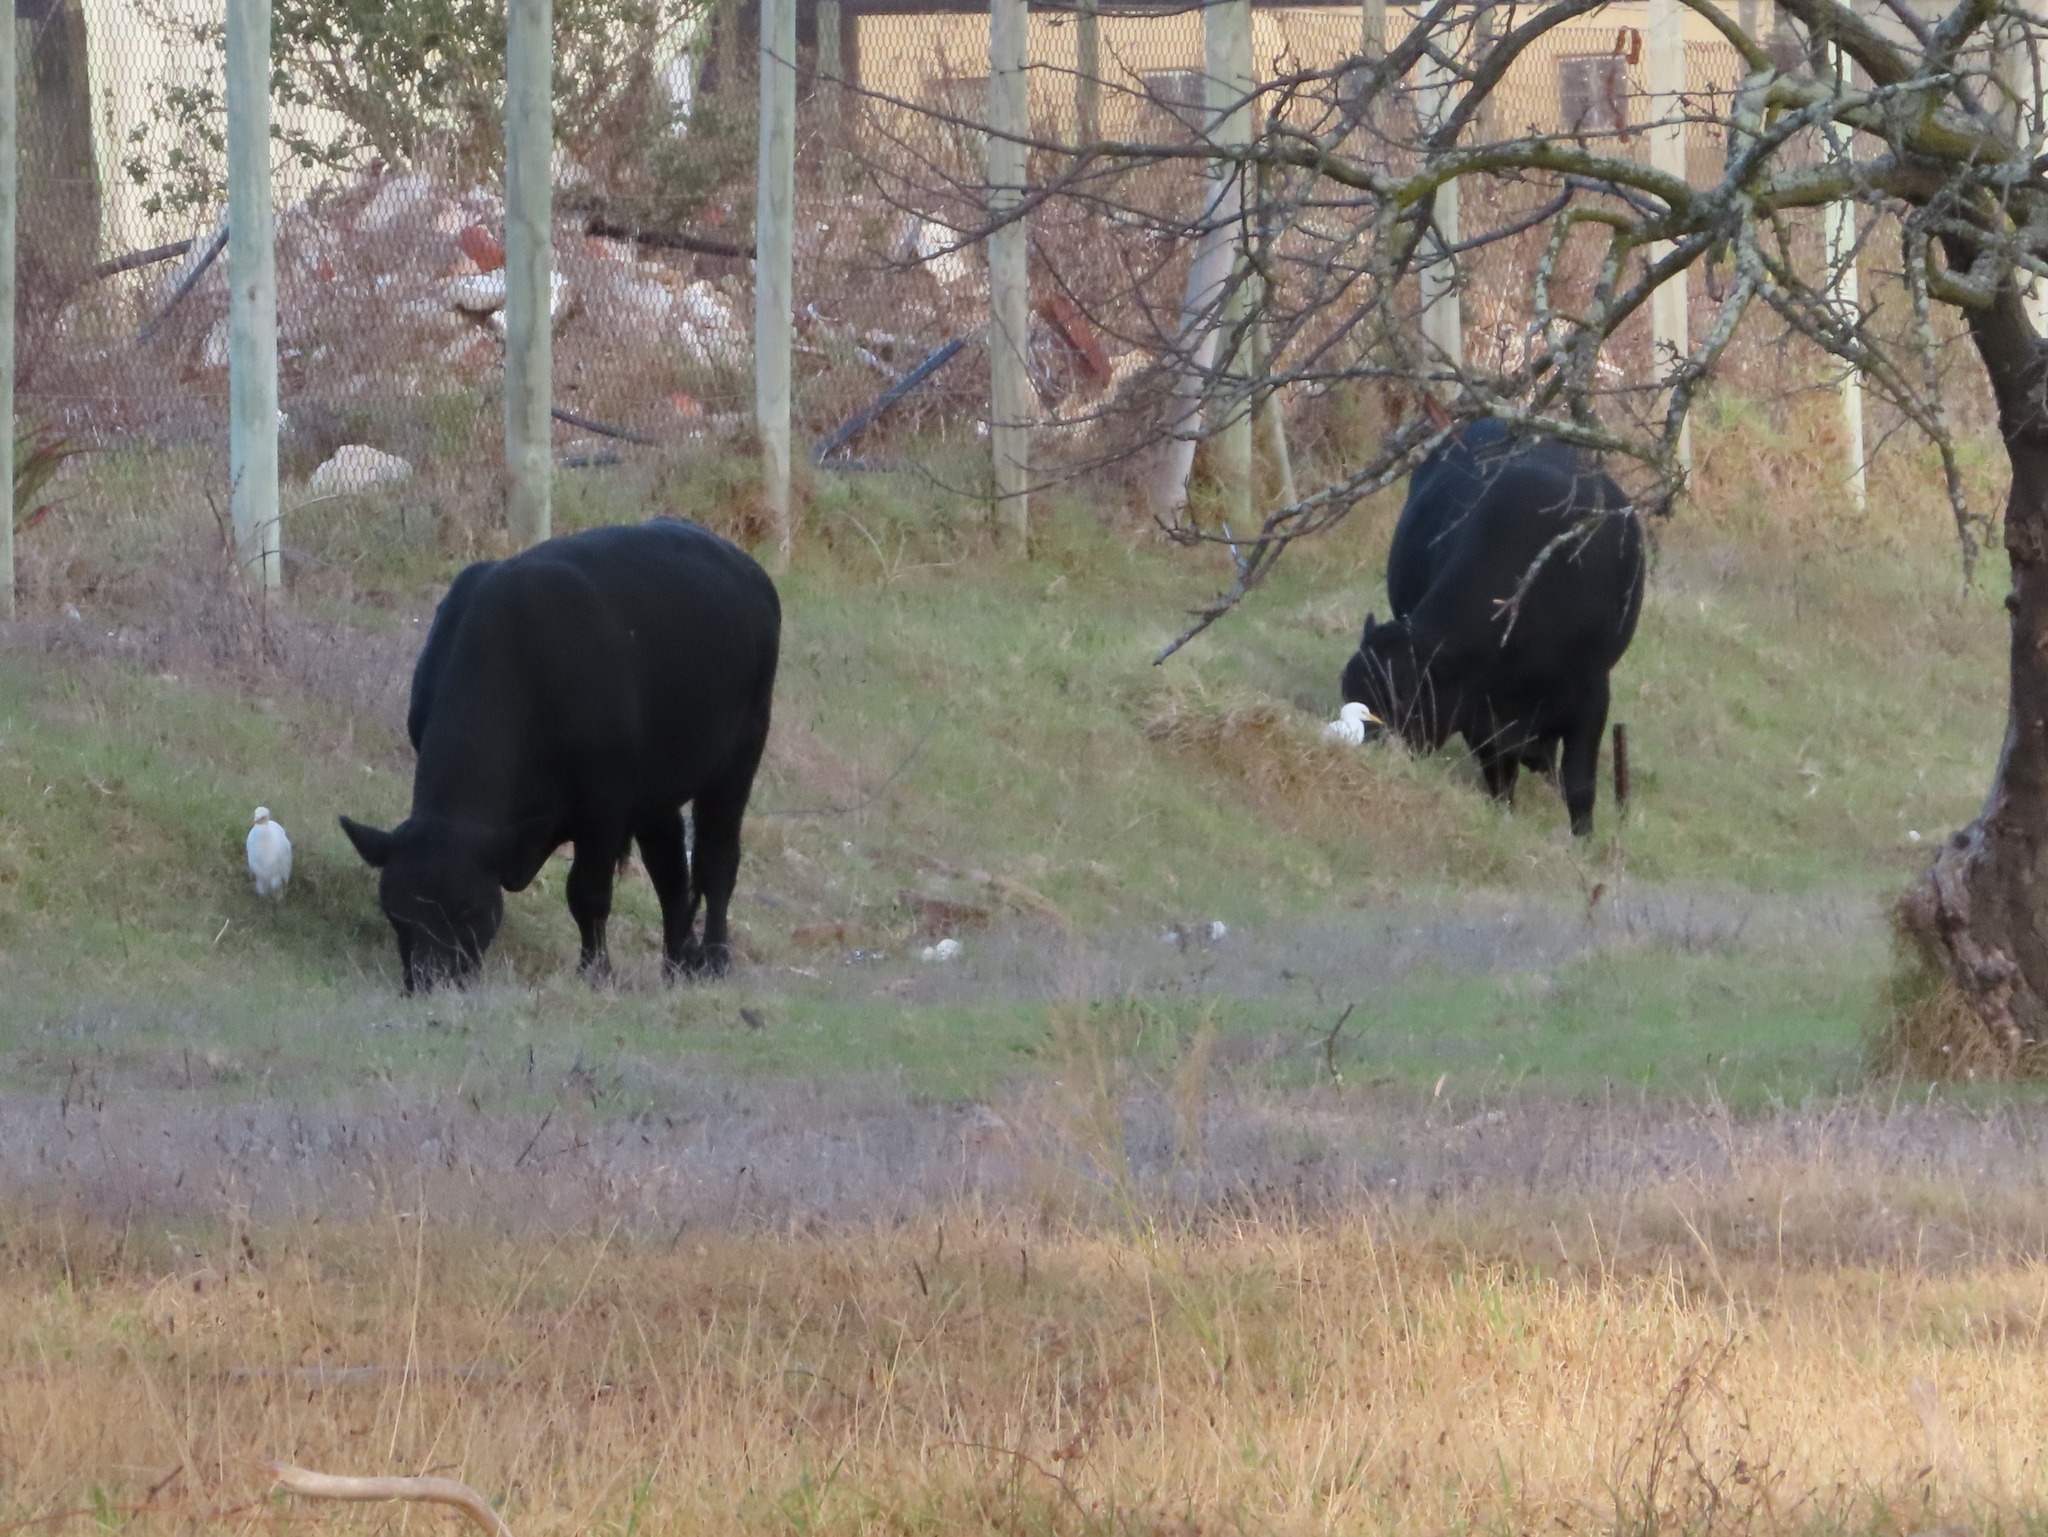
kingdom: Animalia
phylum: Chordata
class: Mammalia
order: Artiodactyla
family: Bovidae
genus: Bos
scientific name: Bos taurus
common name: Domesticated cattle
